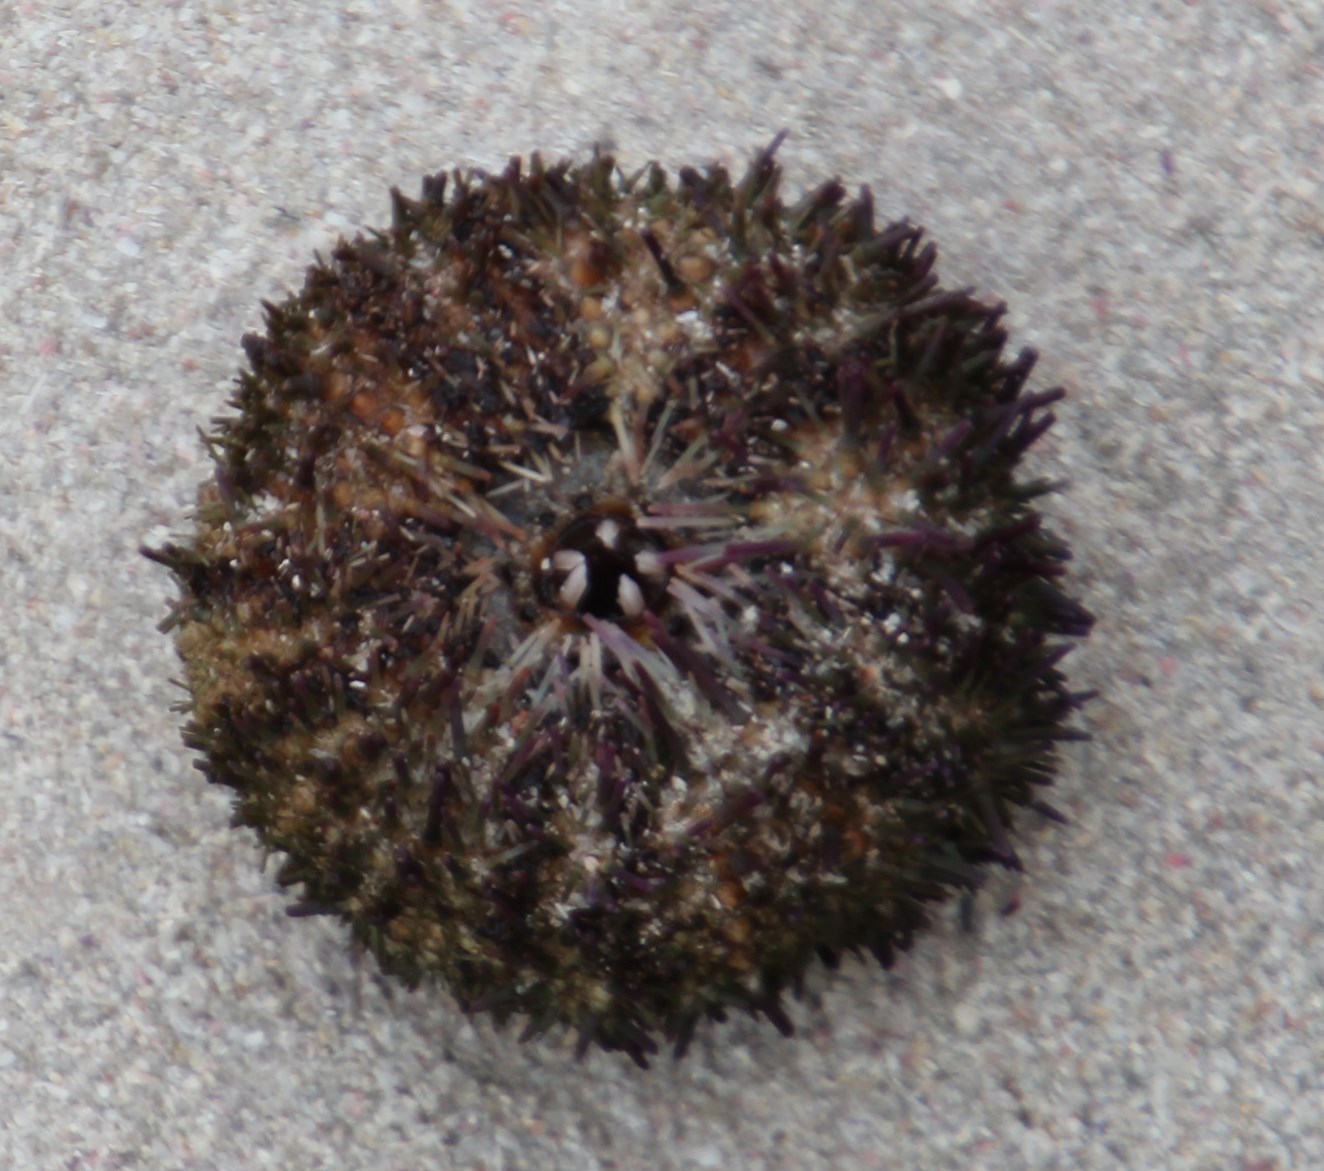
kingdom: Animalia
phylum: Echinodermata
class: Echinoidea
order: Camarodonta
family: Parechinidae
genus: Parechinus
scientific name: Parechinus angulosus
